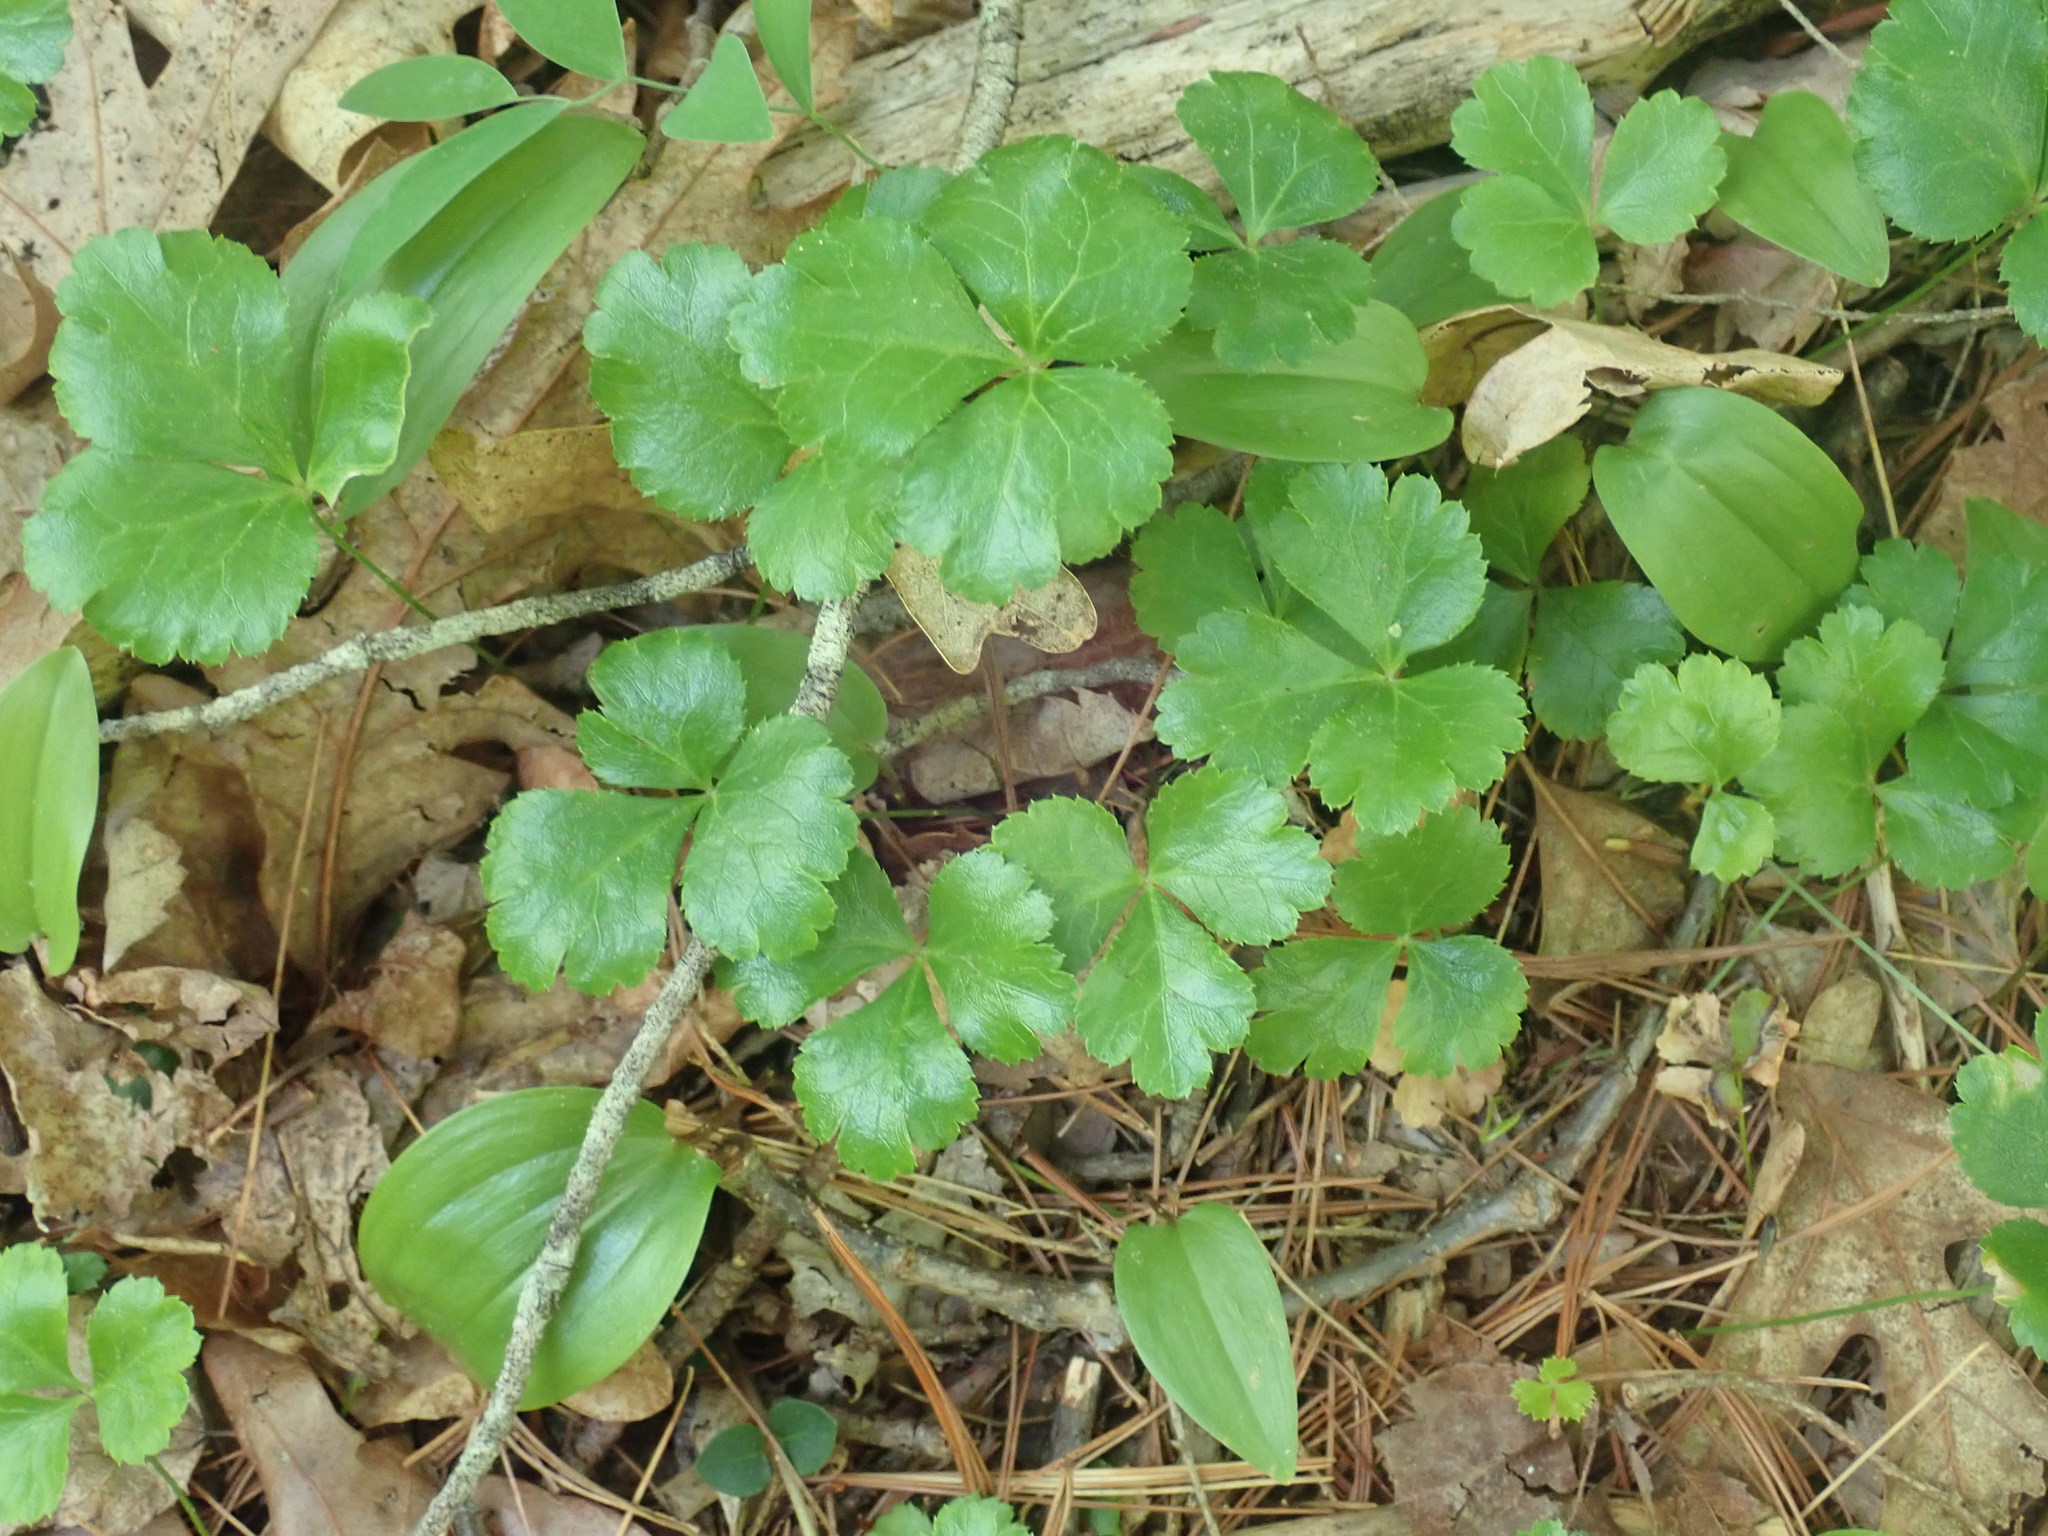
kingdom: Plantae
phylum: Tracheophyta
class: Magnoliopsida
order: Ranunculales
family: Ranunculaceae
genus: Coptis
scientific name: Coptis trifolia
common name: Canker-root
